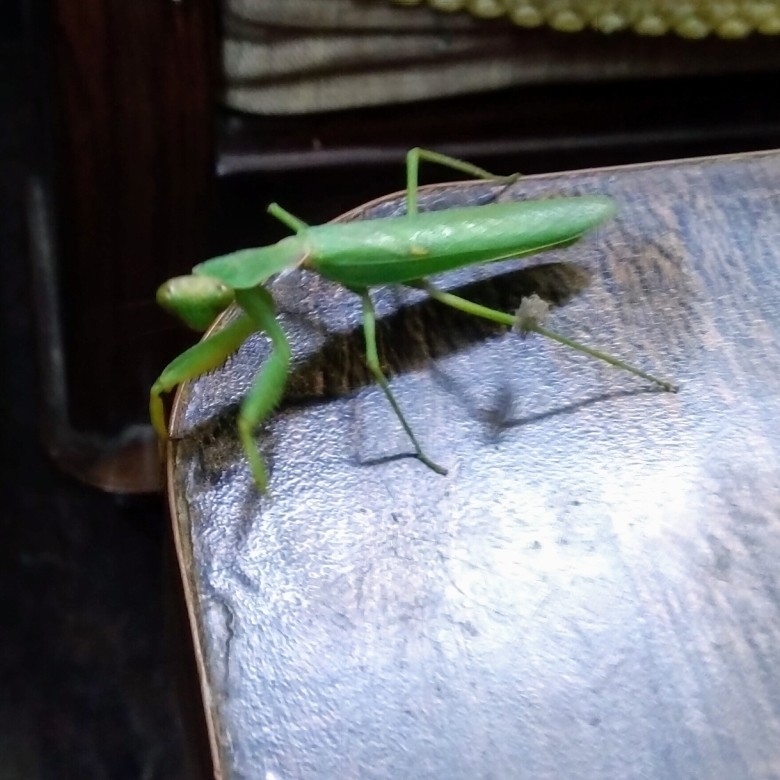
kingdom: Animalia
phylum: Arthropoda
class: Insecta
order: Mantodea
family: Mantidae
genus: Hierodula
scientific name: Hierodula tenuidentata
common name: Giant asian mantis
